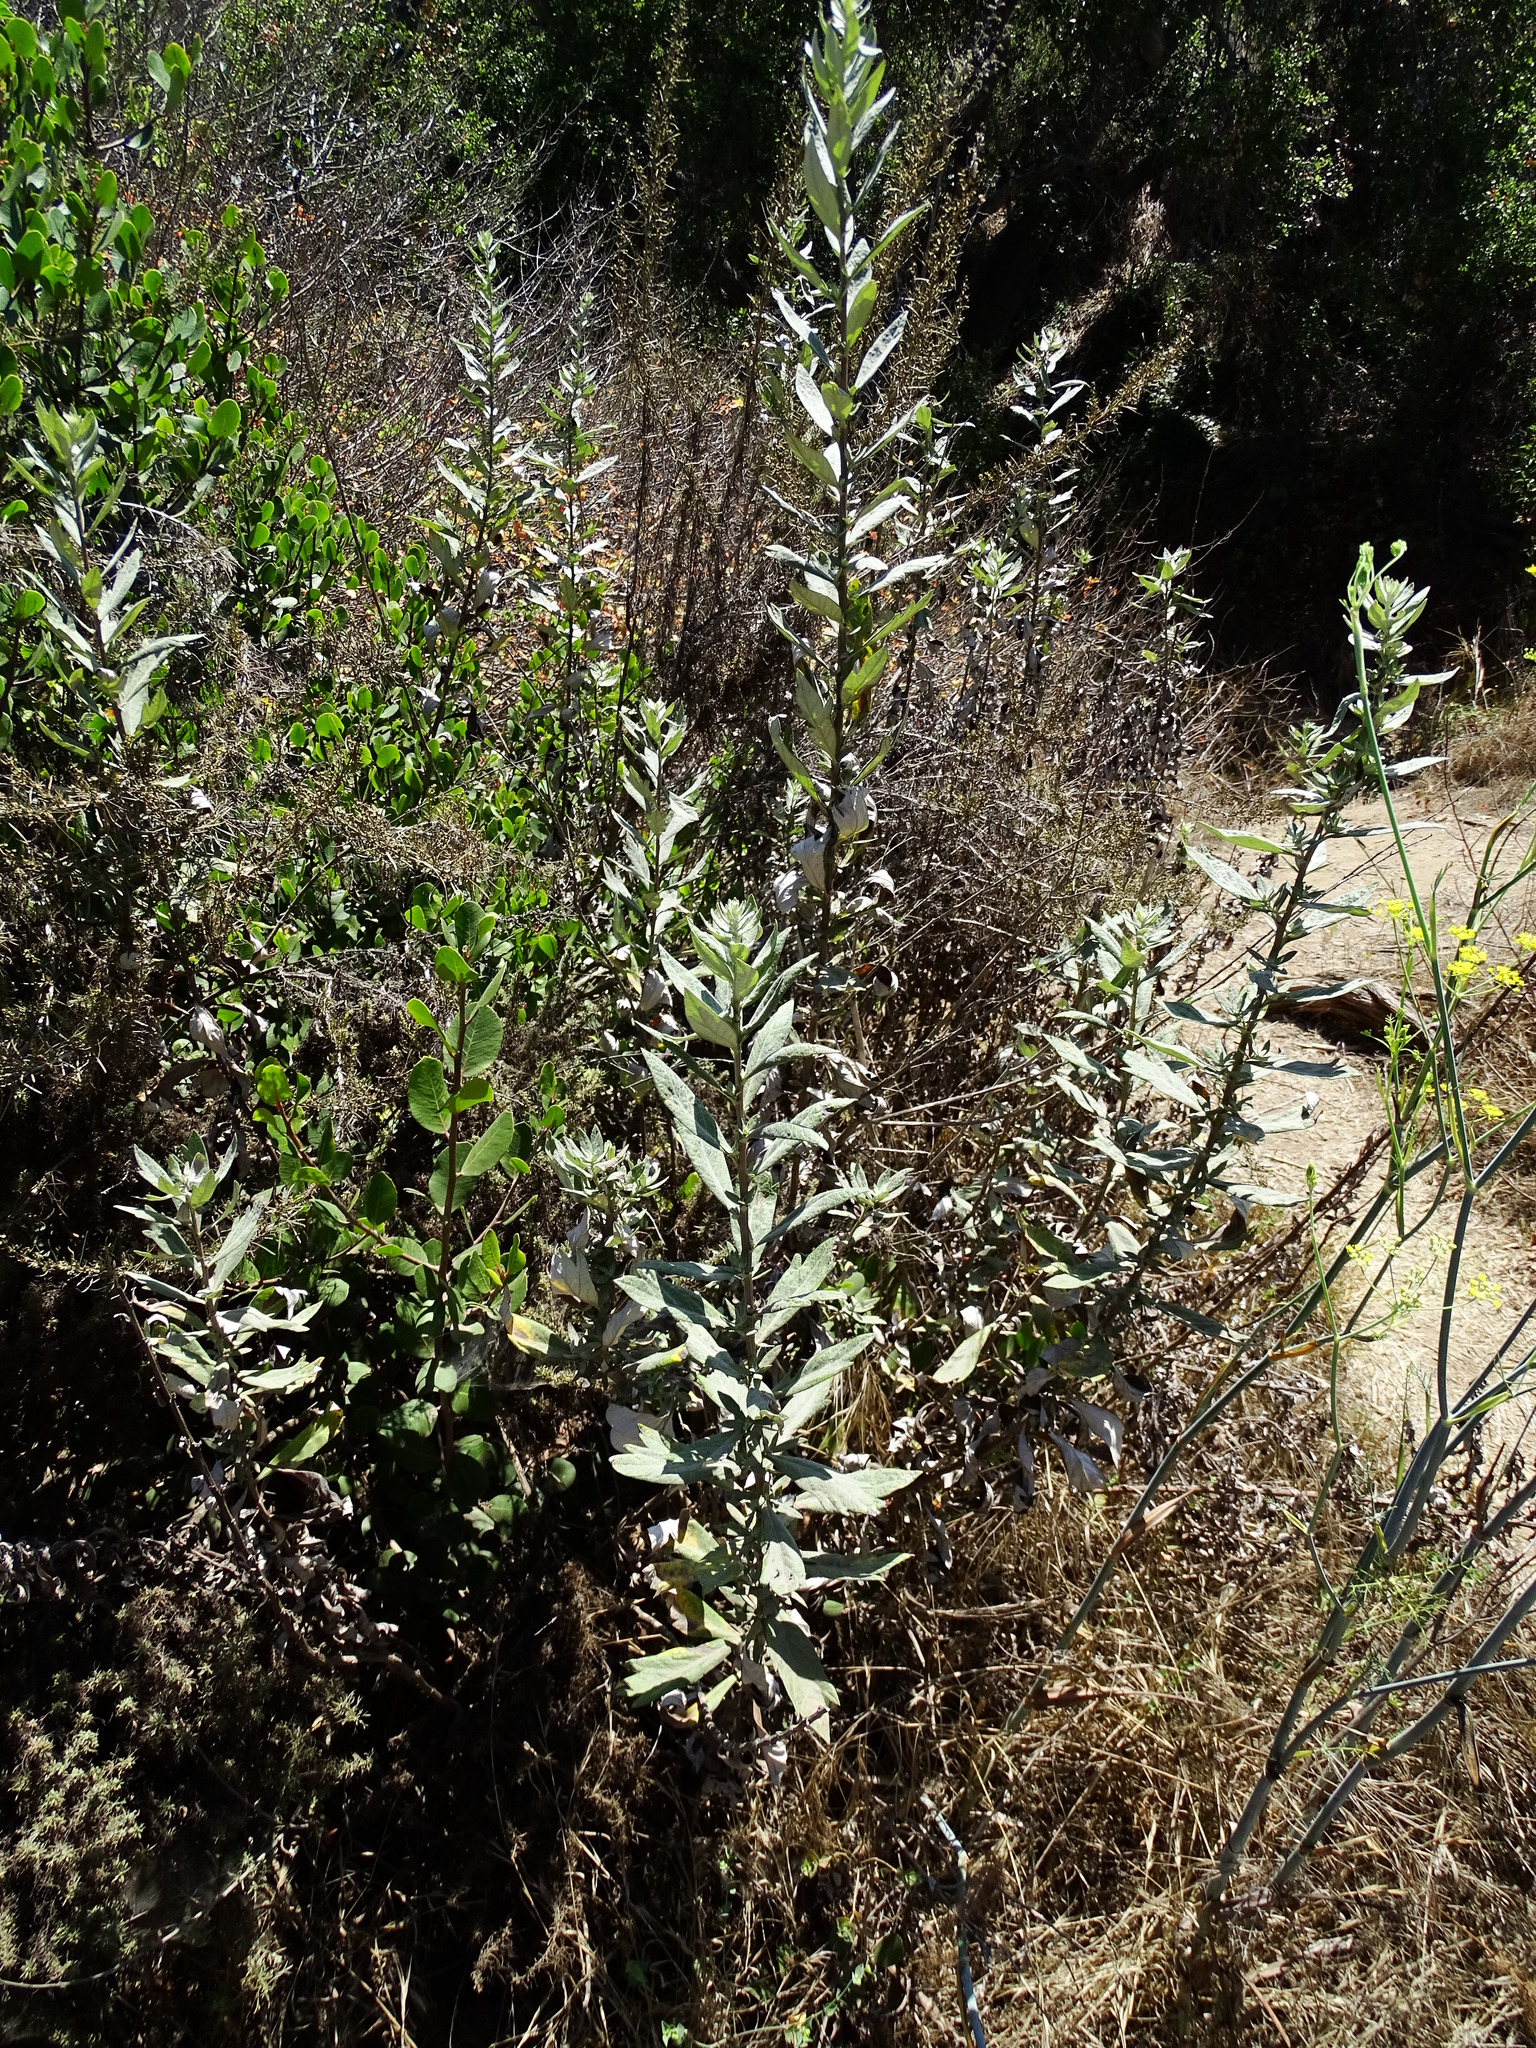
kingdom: Plantae
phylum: Tracheophyta
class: Magnoliopsida
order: Asterales
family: Asteraceae
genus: Artemisia
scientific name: Artemisia douglasiana
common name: Northwest mugwort
